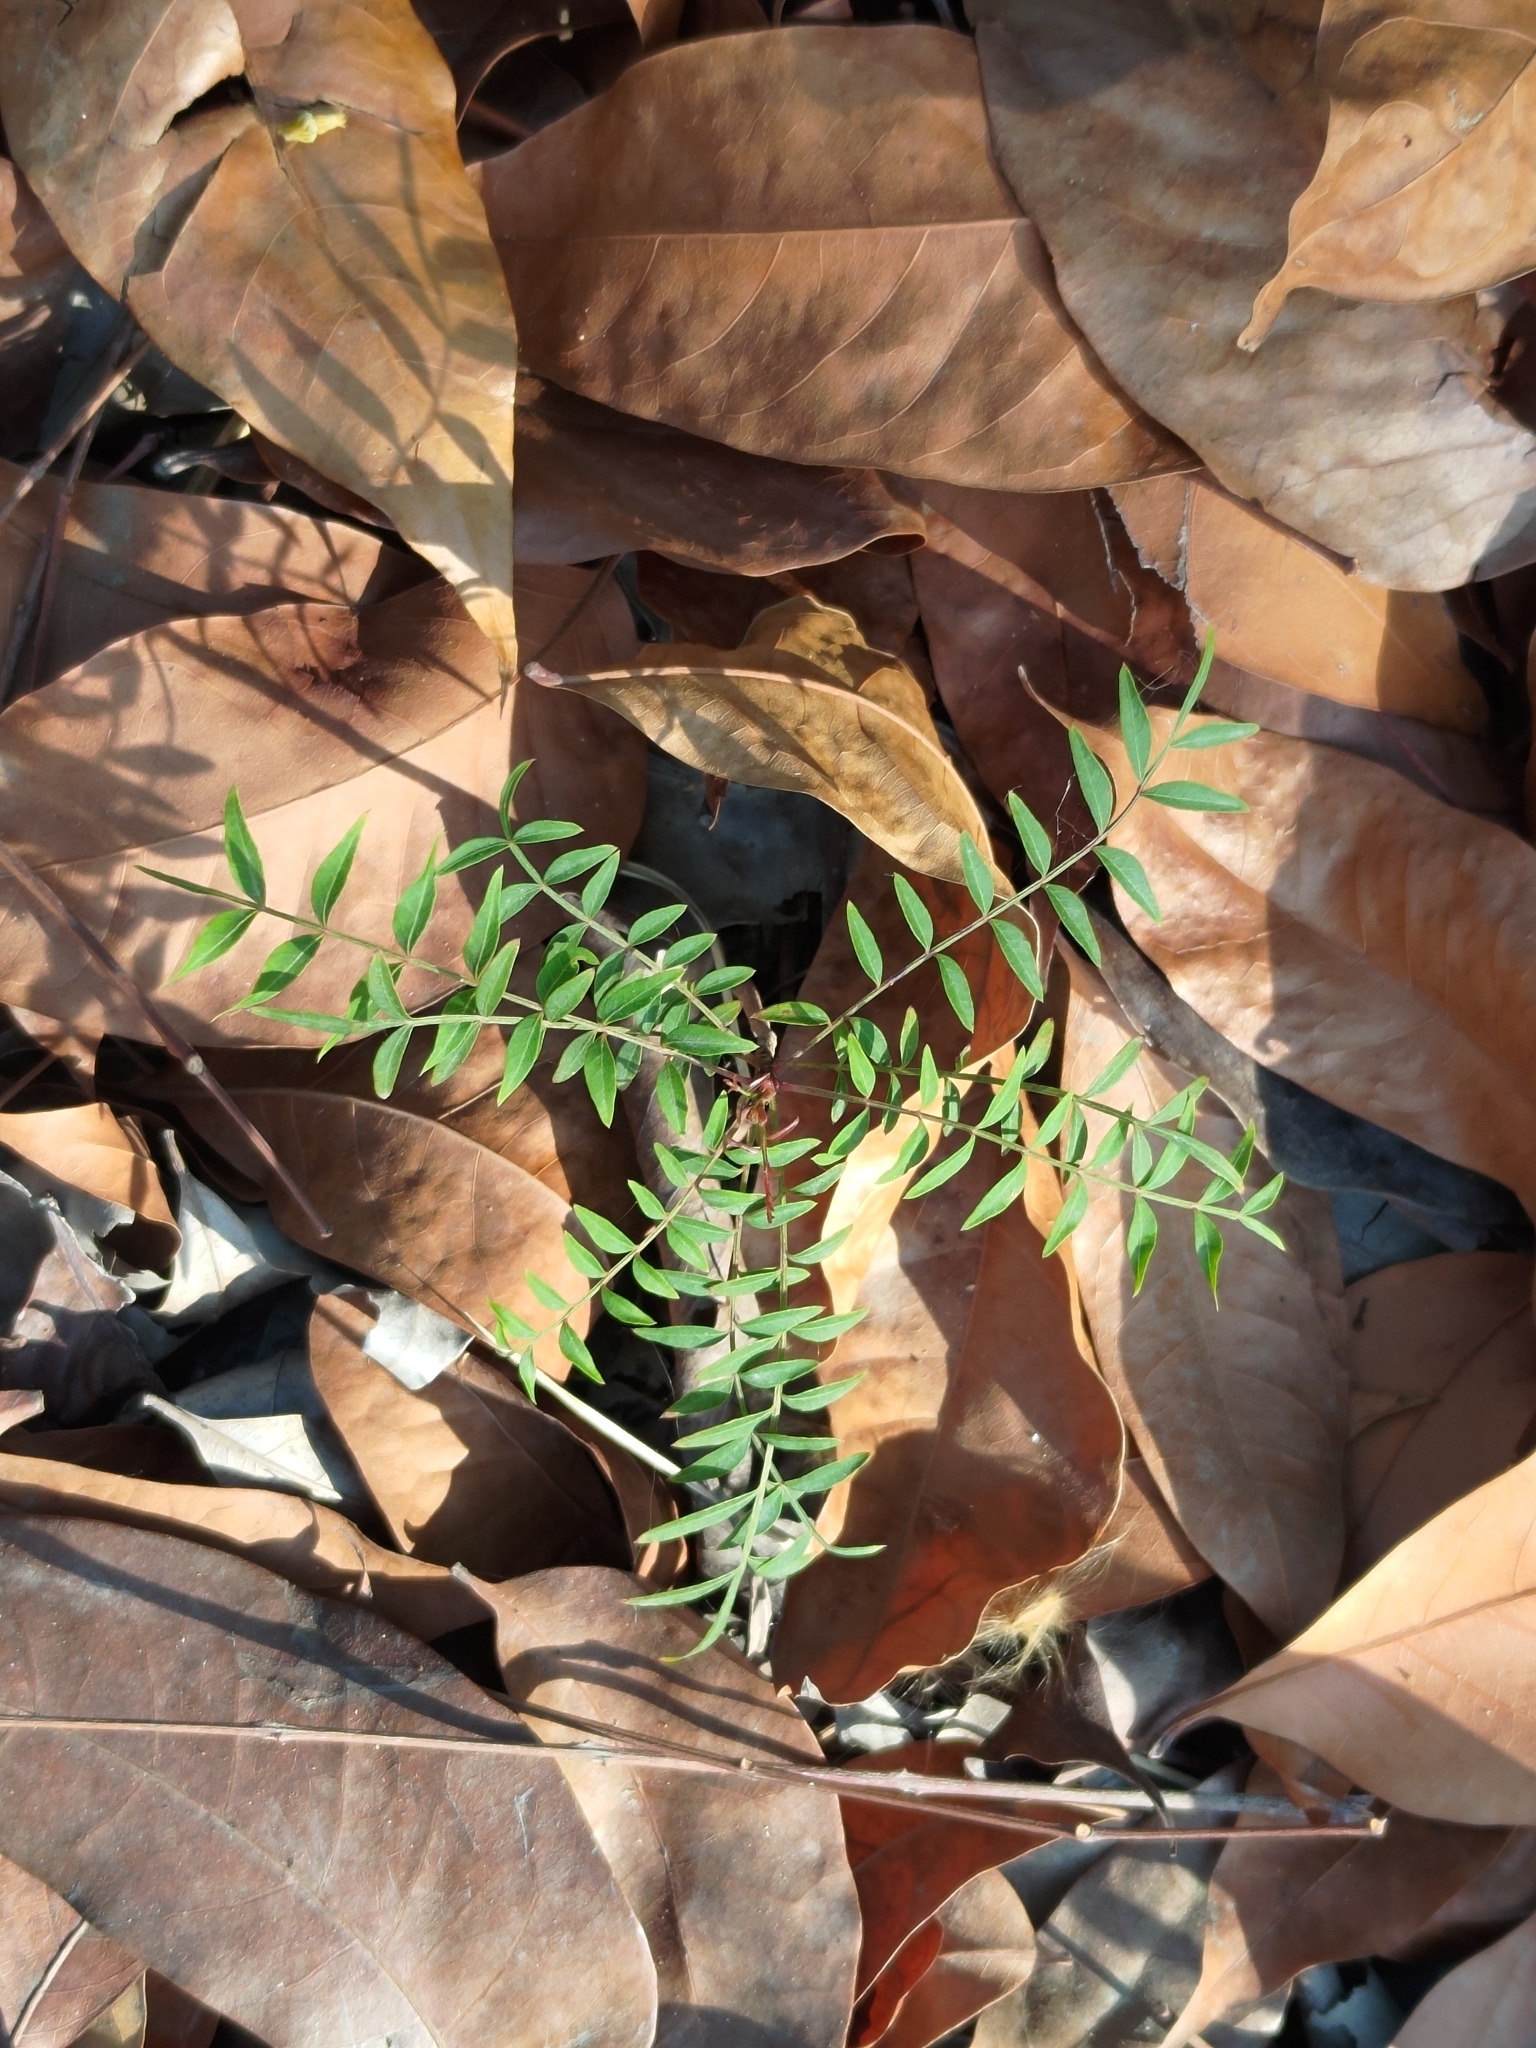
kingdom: Plantae
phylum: Tracheophyta
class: Magnoliopsida
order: Sapindales
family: Anacardiaceae
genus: Pistacia
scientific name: Pistacia chinensis
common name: Chinese pistache
